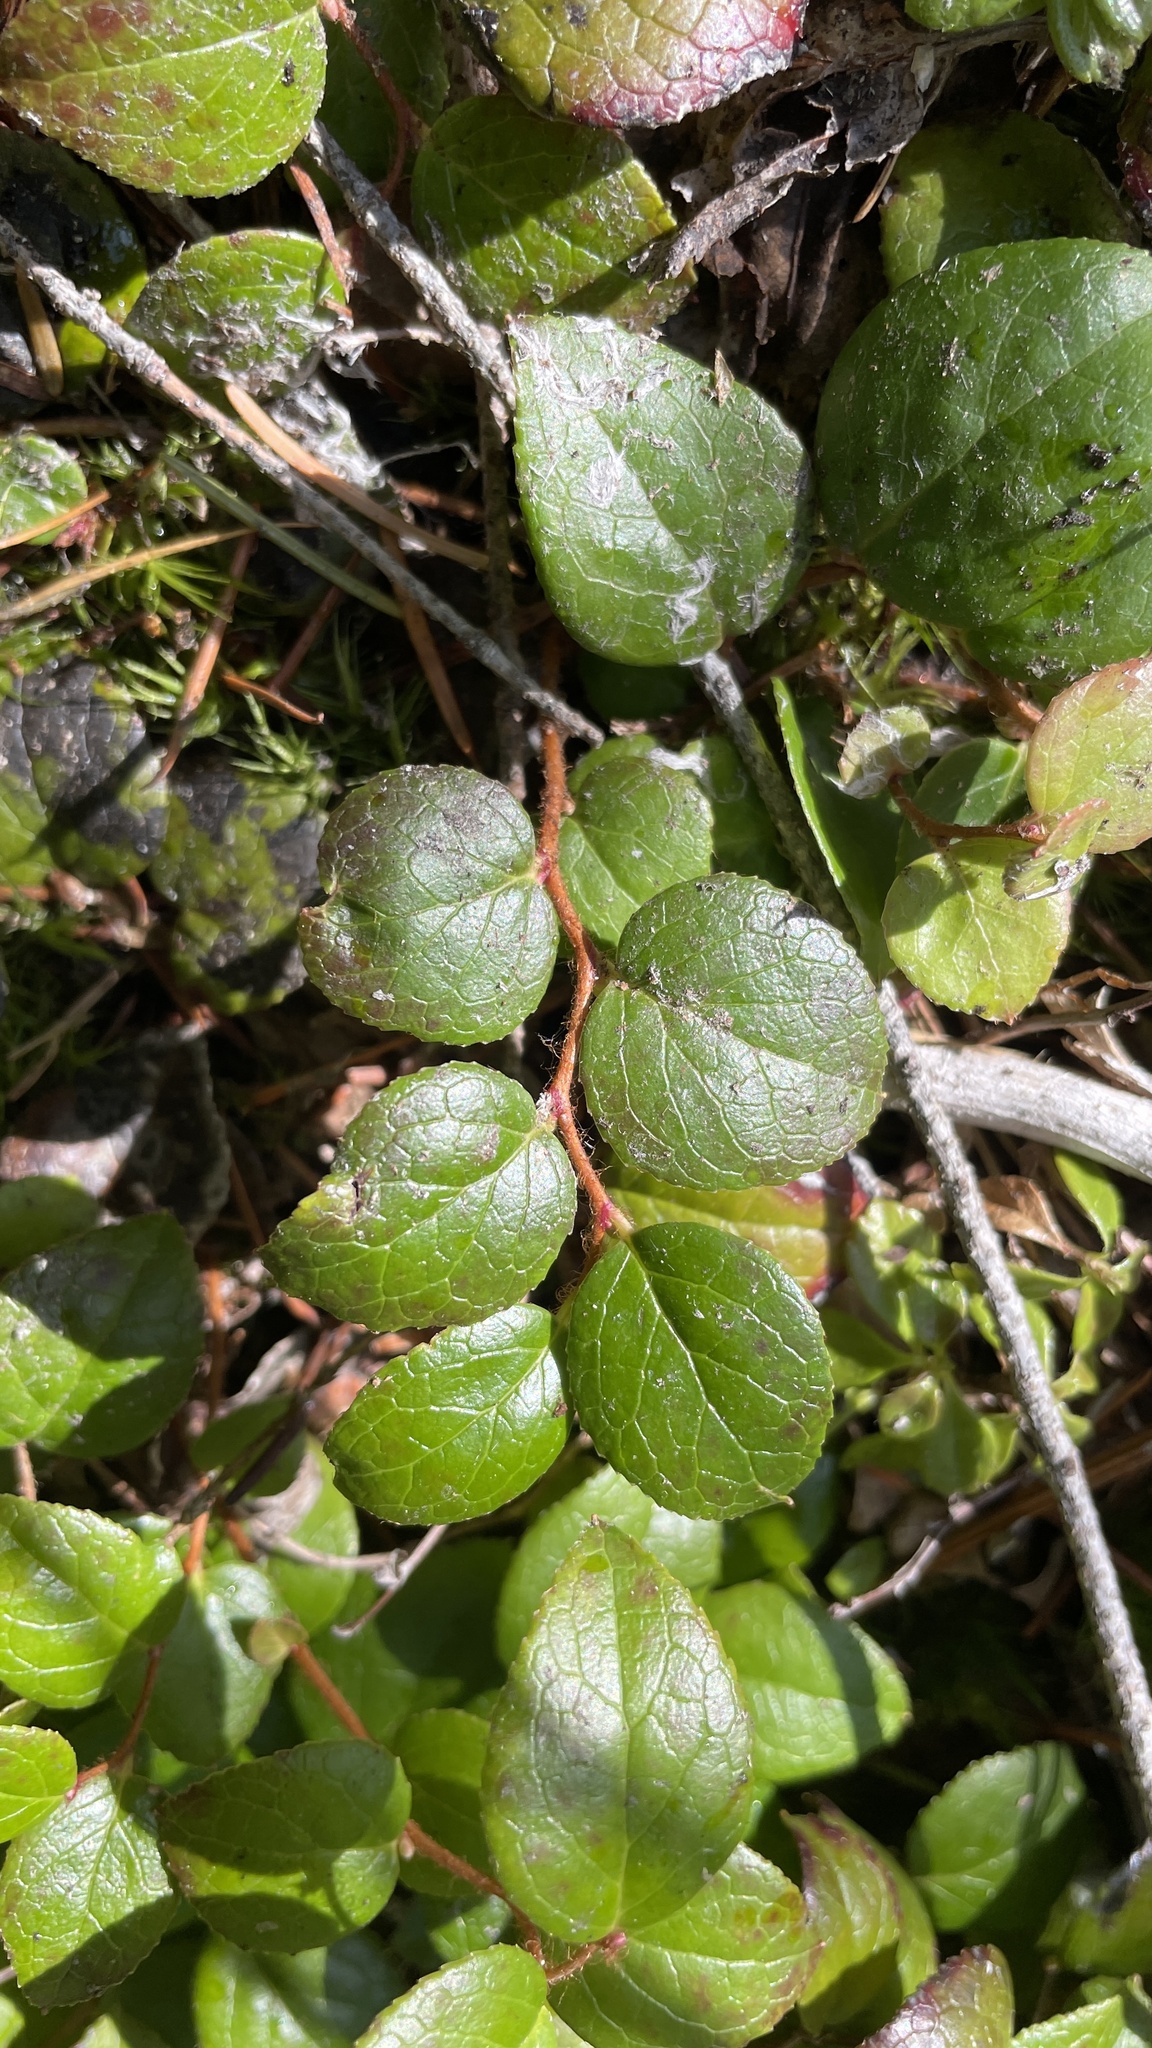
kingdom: Plantae
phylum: Tracheophyta
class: Magnoliopsida
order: Ericales
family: Ericaceae
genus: Gaultheria
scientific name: Gaultheria ovatifolia
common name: Oregon wintergreen
